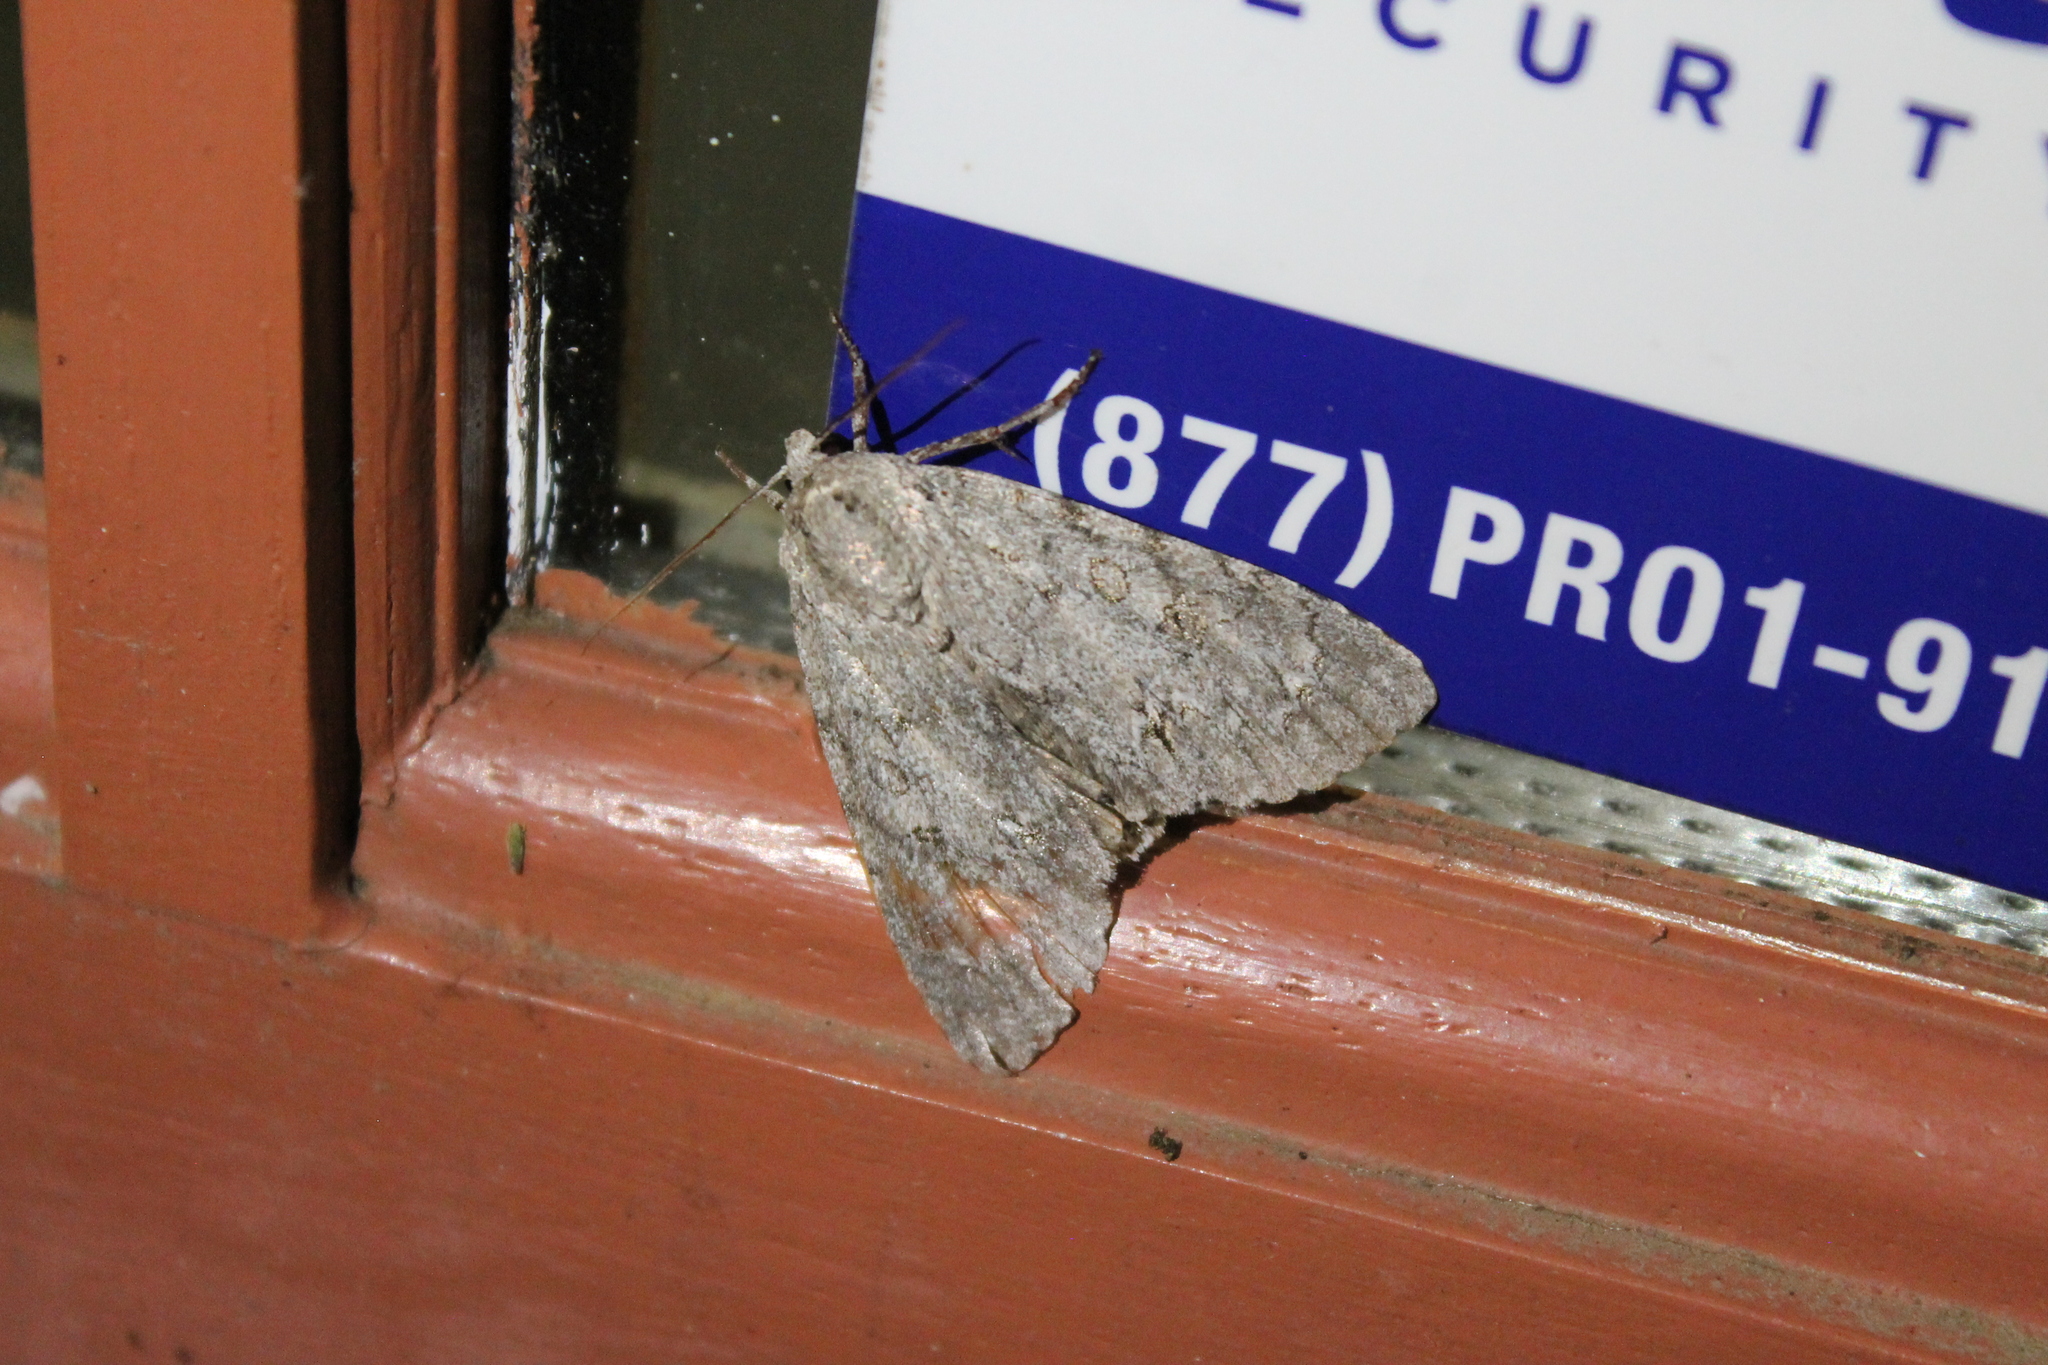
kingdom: Animalia
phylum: Arthropoda
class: Insecta
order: Lepidoptera
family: Noctuidae
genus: Acronicta
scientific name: Acronicta americana
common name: American dagger
